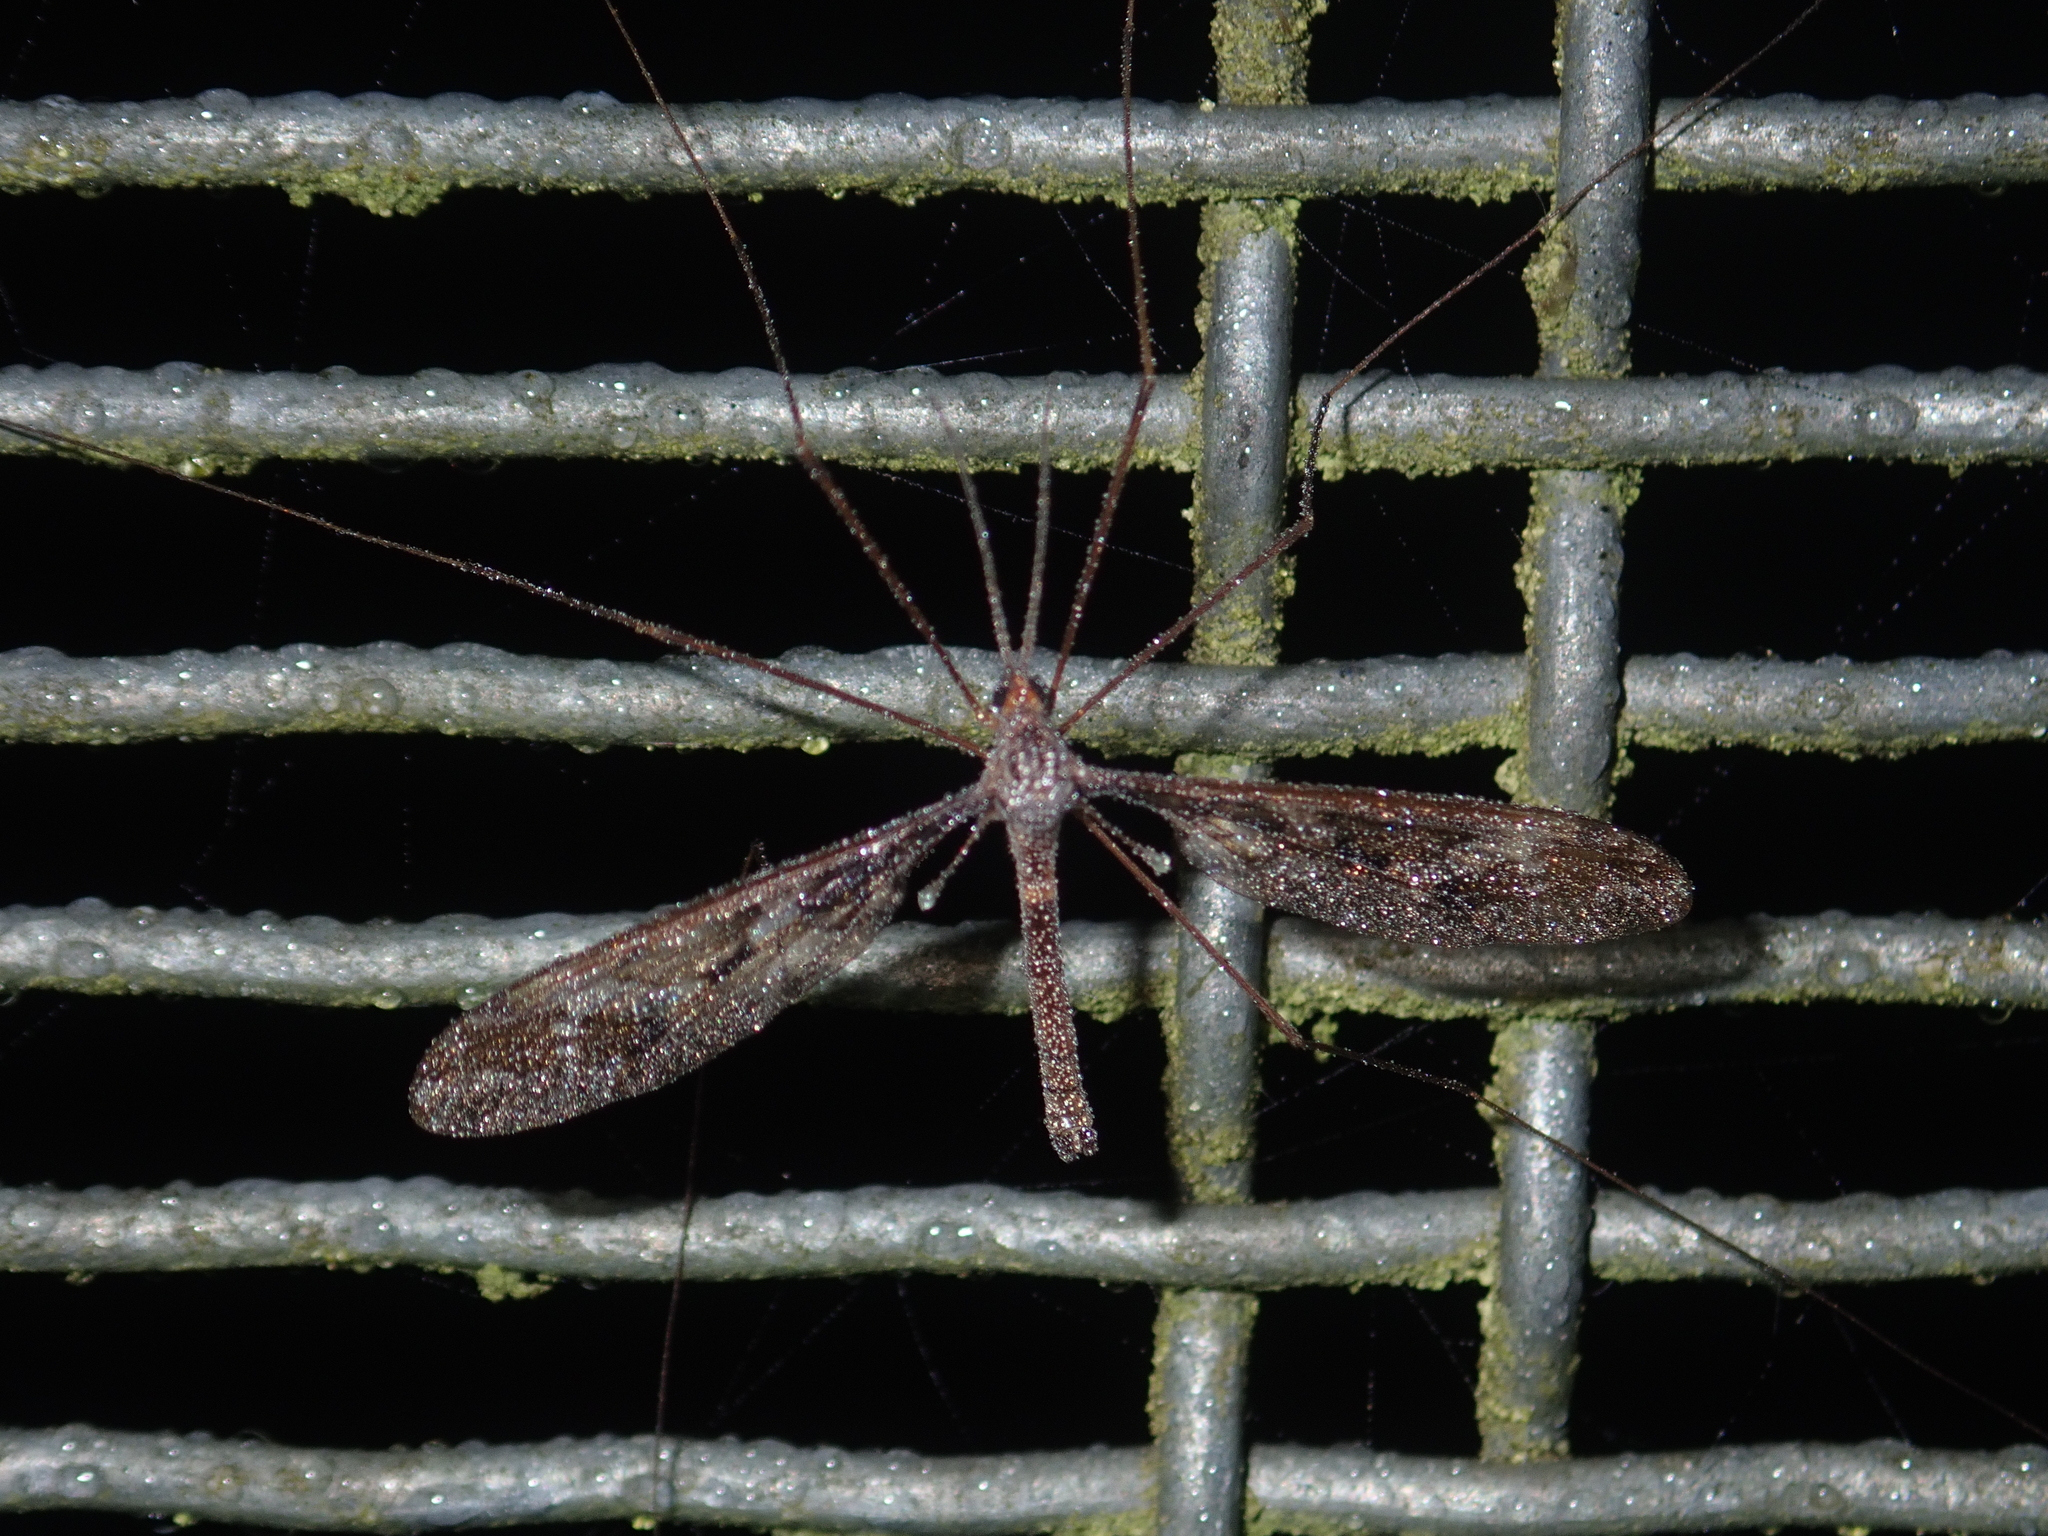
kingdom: Animalia
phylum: Arthropoda
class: Insecta
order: Diptera
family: Tipulidae
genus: Leptotarsus
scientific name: Leptotarsus binotatus
